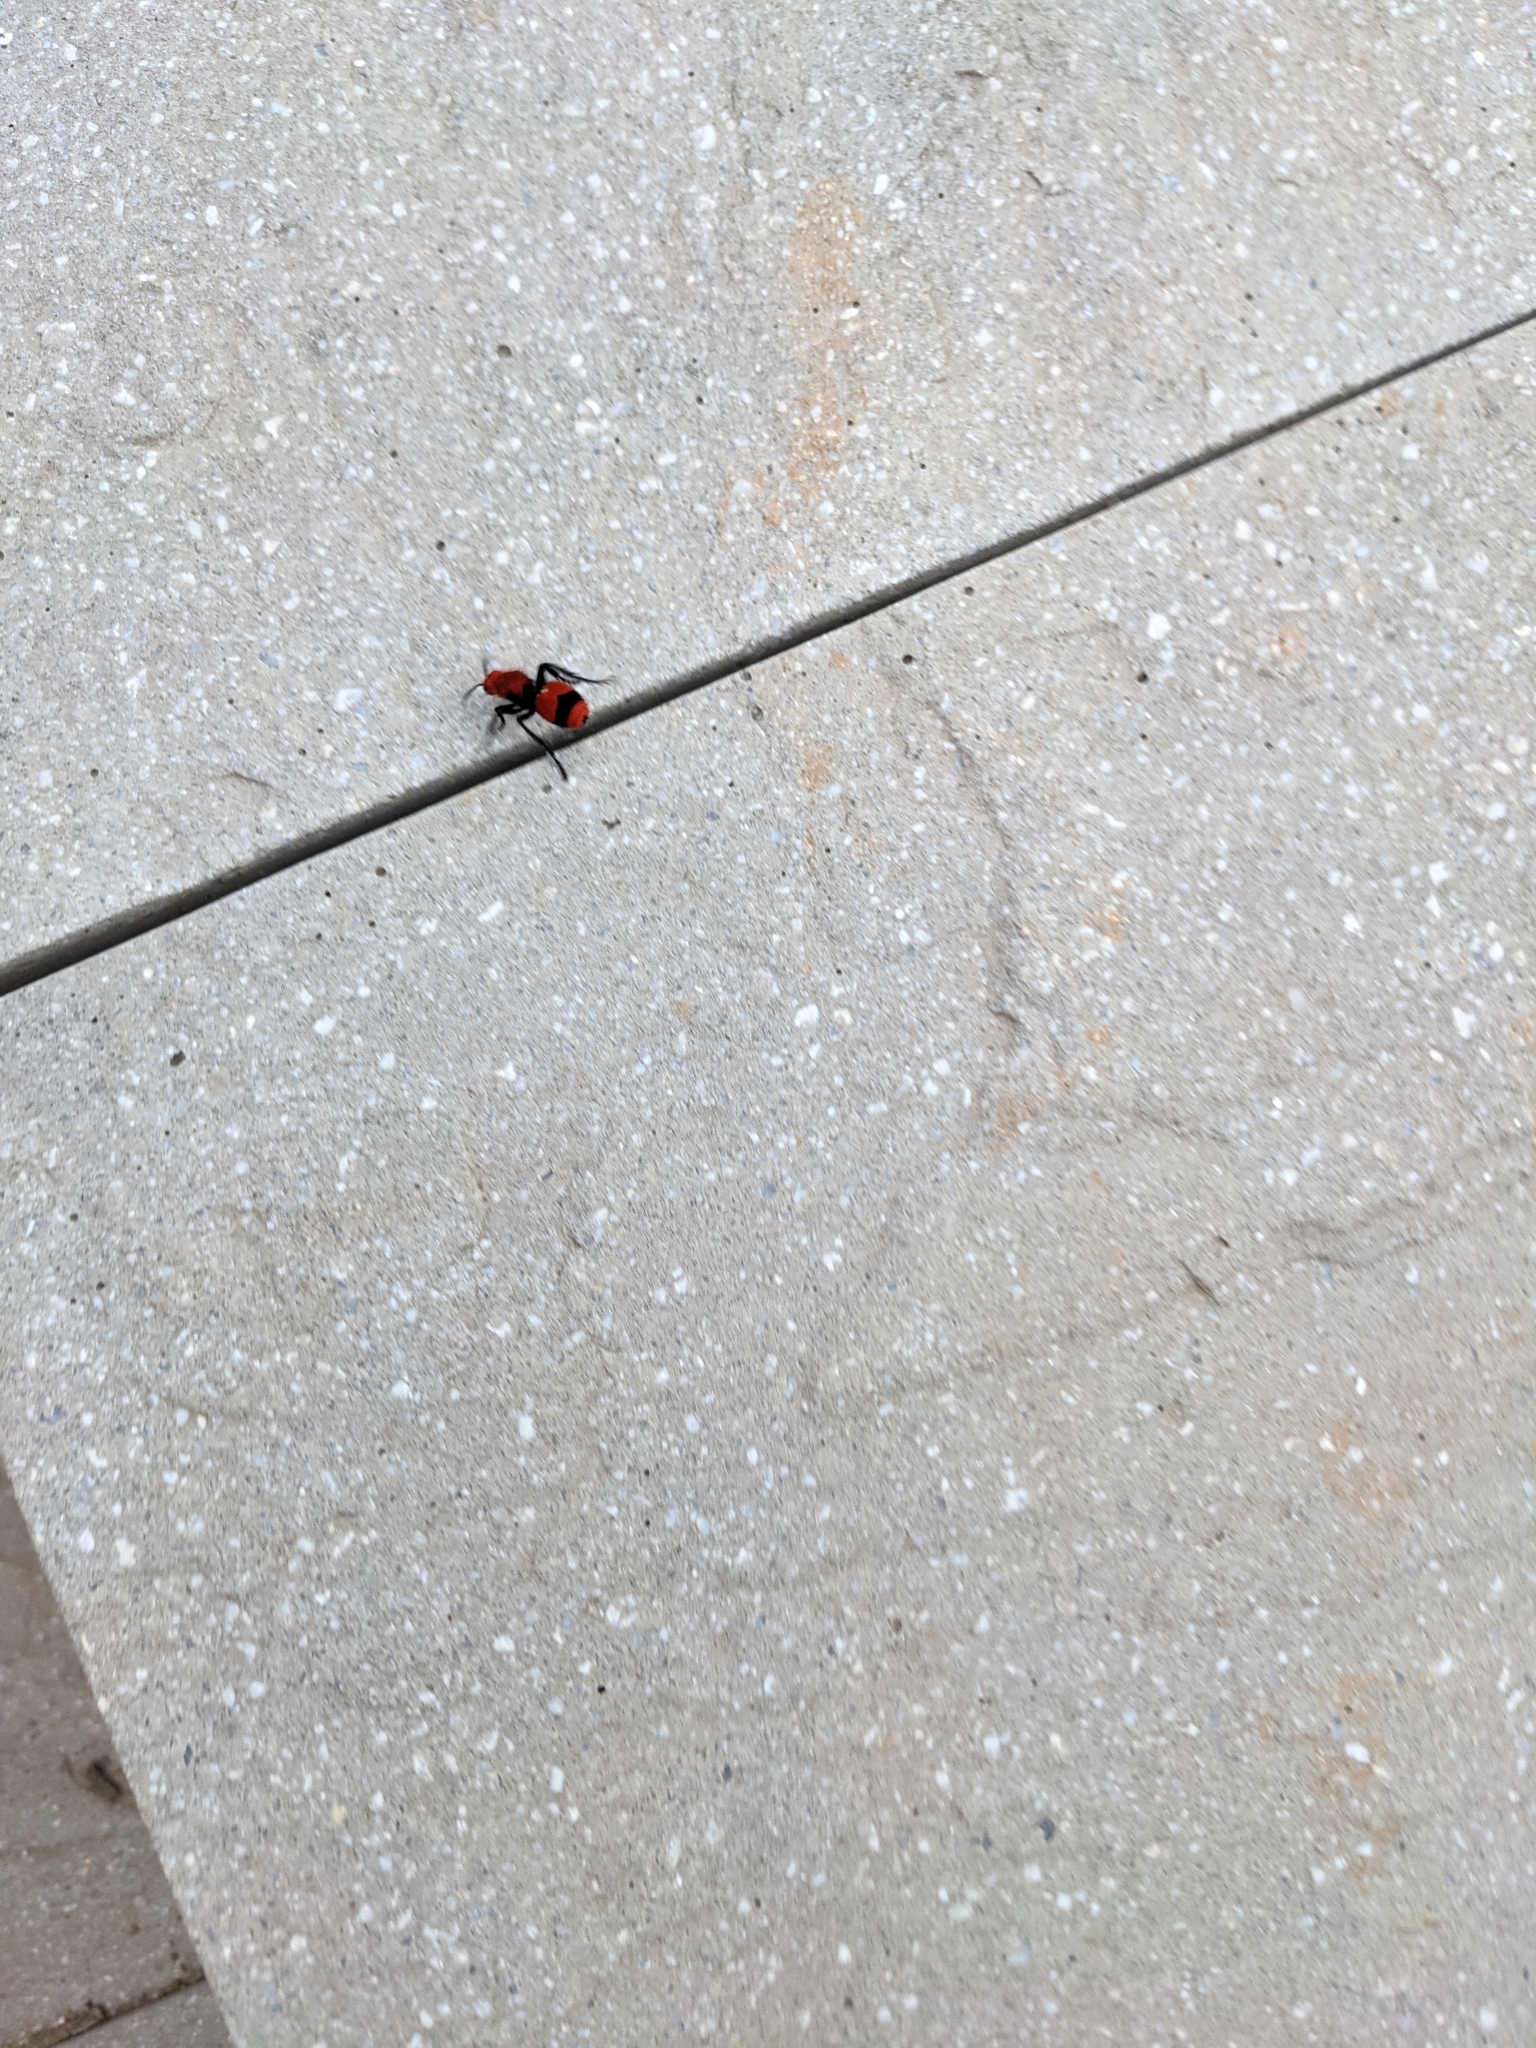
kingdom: Animalia
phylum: Arthropoda
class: Insecta
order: Hymenoptera
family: Mutillidae
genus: Dasymutilla
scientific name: Dasymutilla occidentalis
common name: Common eastern velvet ant
